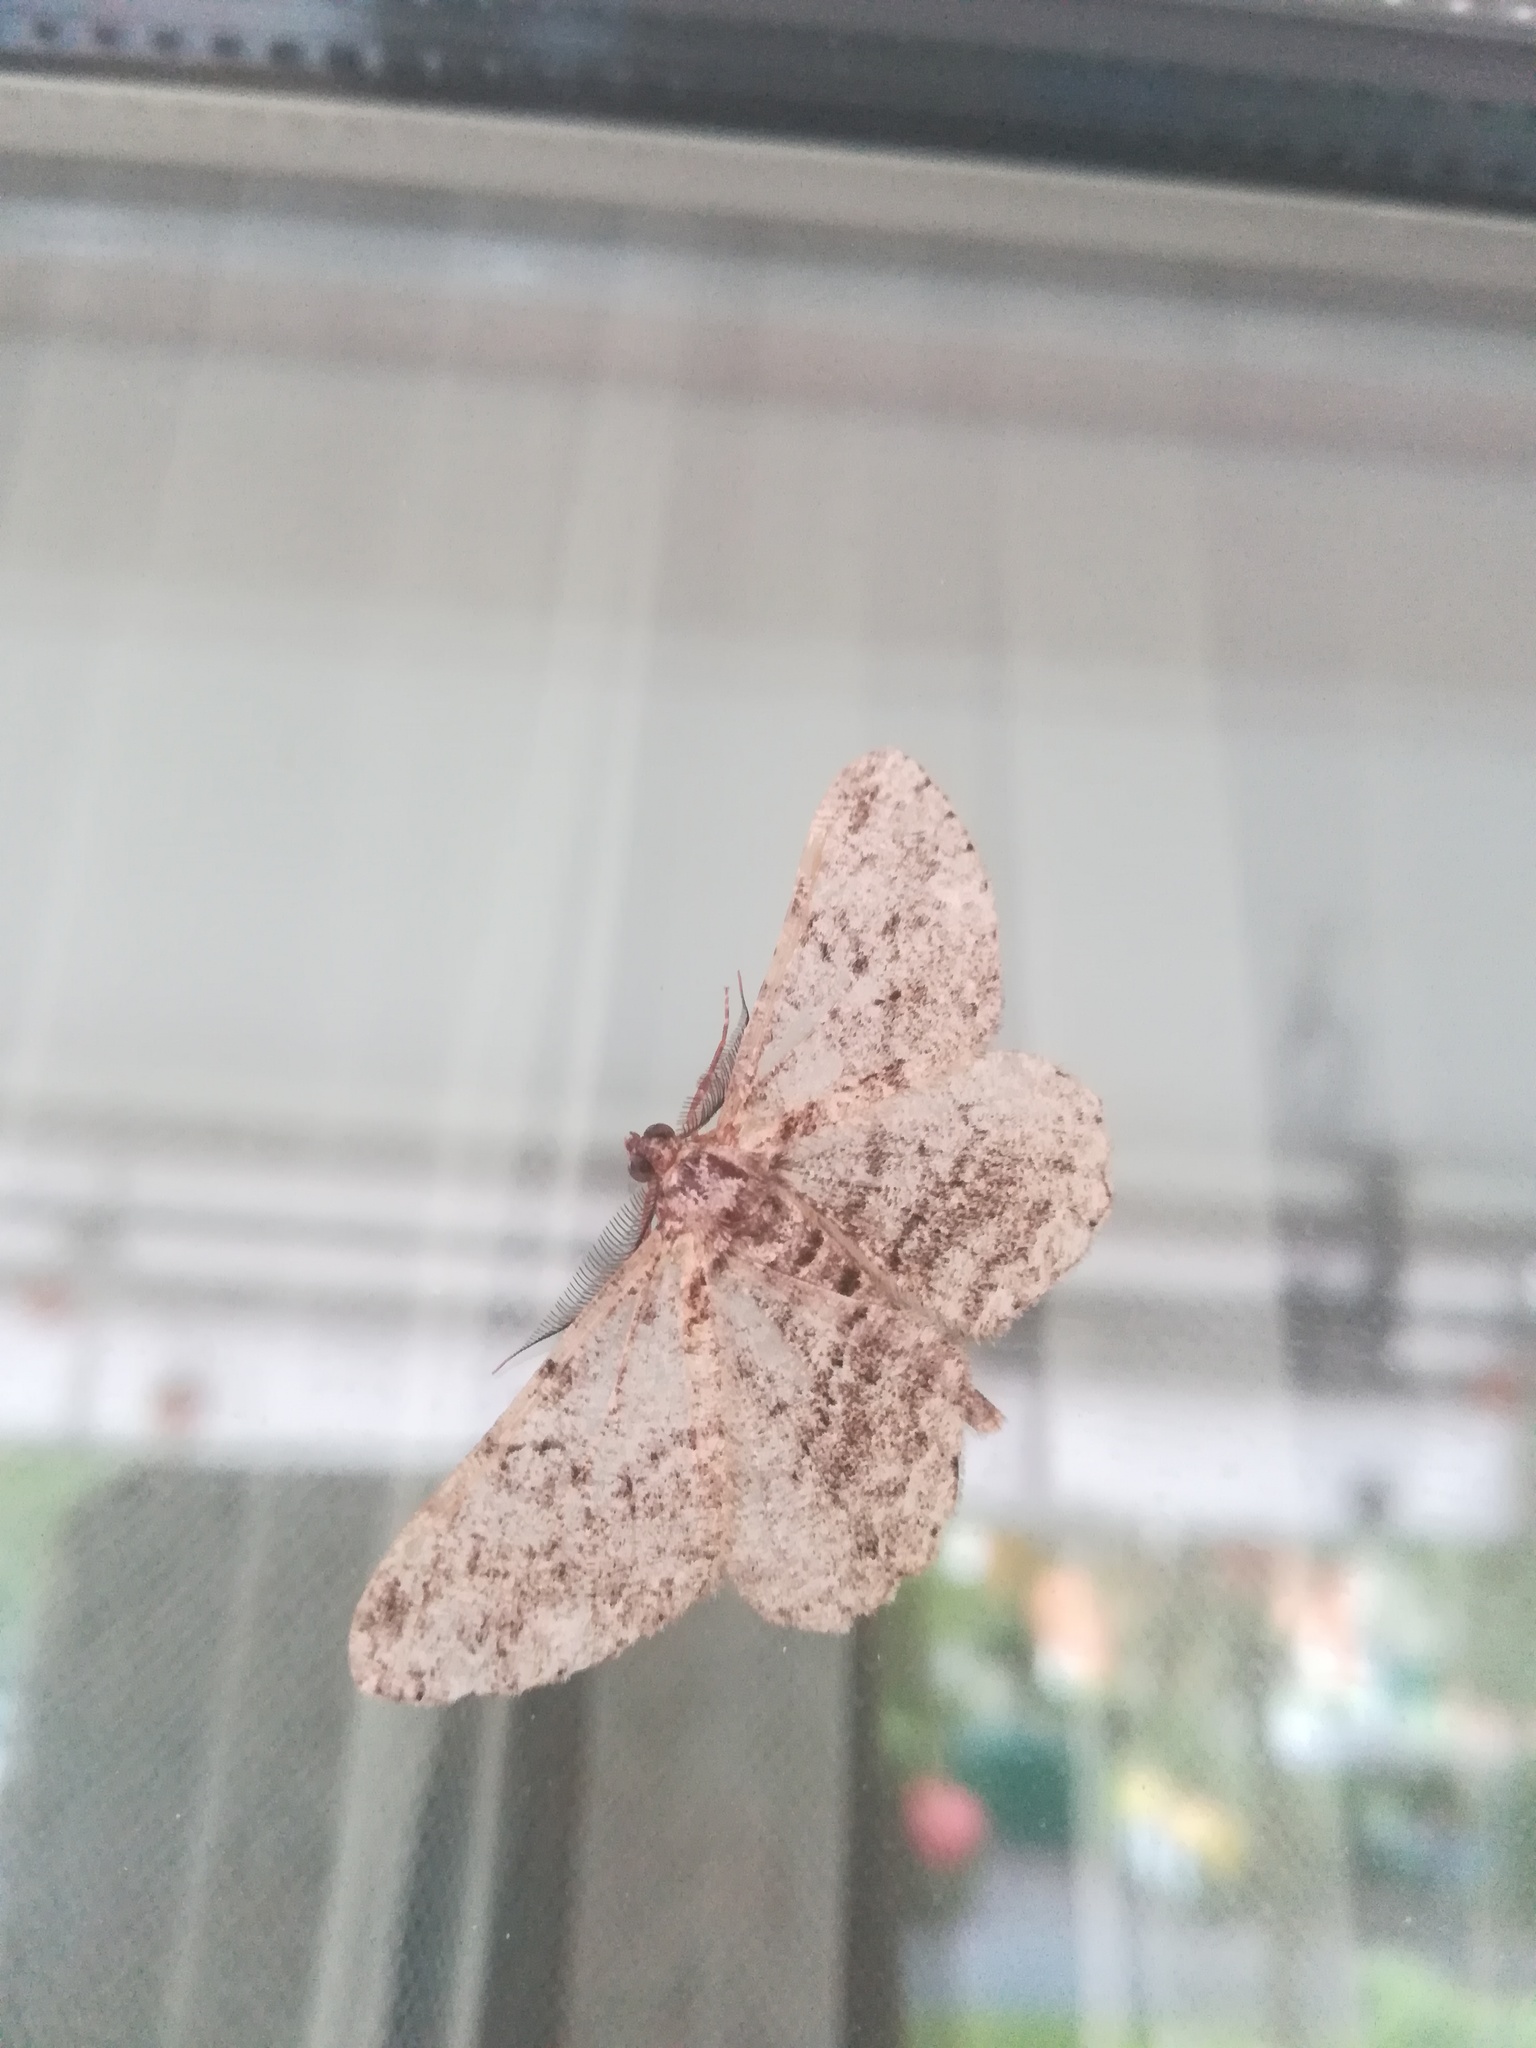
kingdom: Animalia
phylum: Arthropoda
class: Insecta
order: Lepidoptera
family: Geometridae
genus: Peribatodes
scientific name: Peribatodes rhomboidaria
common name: Willow beauty
